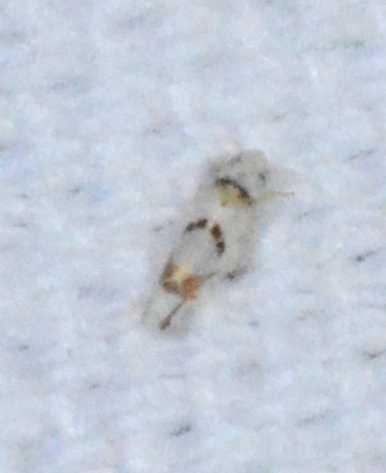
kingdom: Animalia
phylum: Arthropoda
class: Insecta
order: Hemiptera
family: Cicadellidae
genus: Eratoneura
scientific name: Eratoneura lunata
